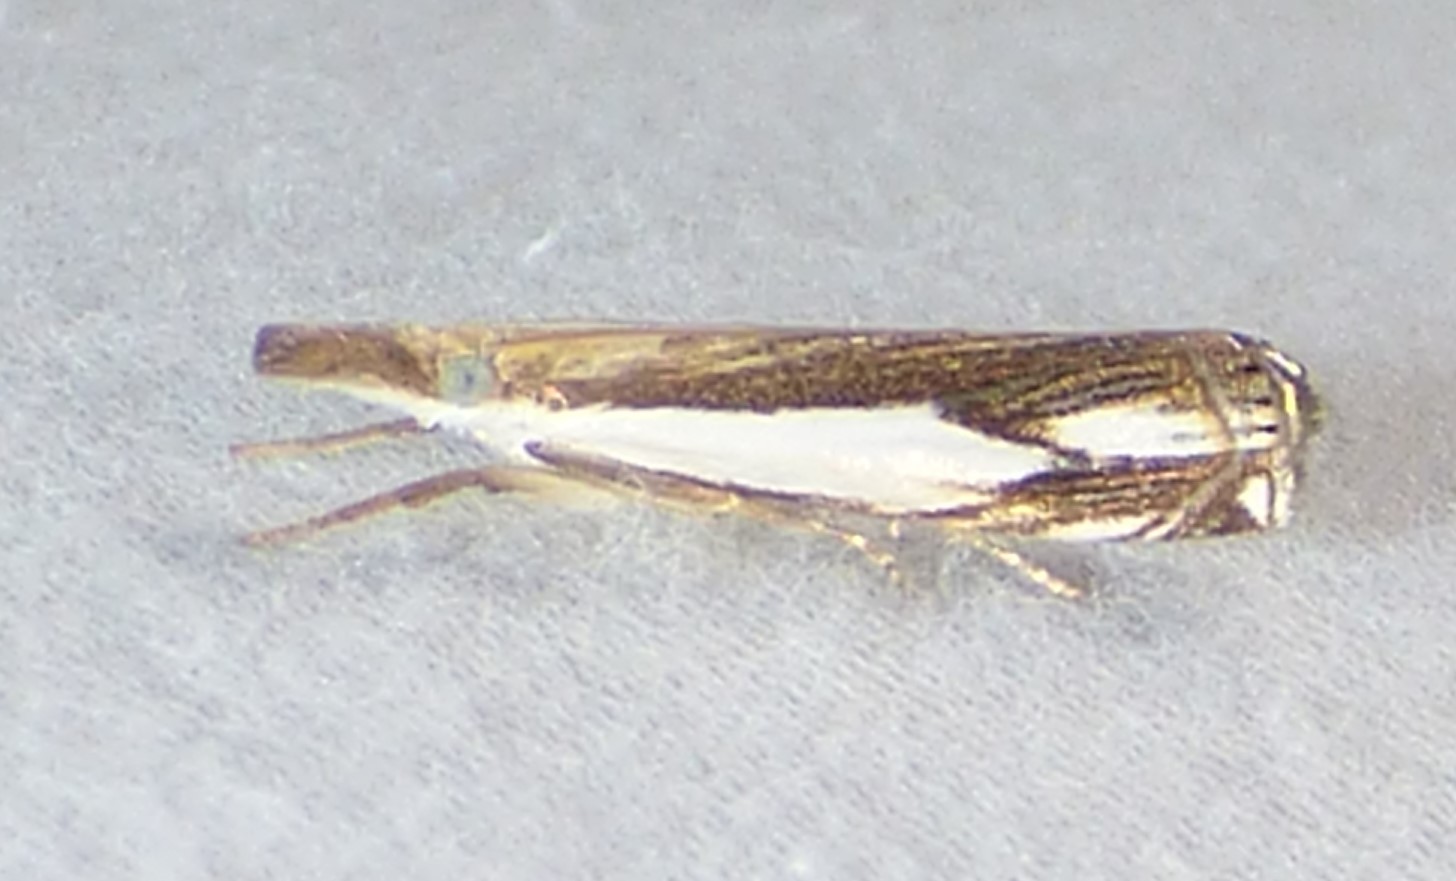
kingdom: Animalia
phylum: Arthropoda
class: Insecta
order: Lepidoptera
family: Crambidae
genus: Crambus
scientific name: Crambus agitatellus
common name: Double-banded grass-veneer
